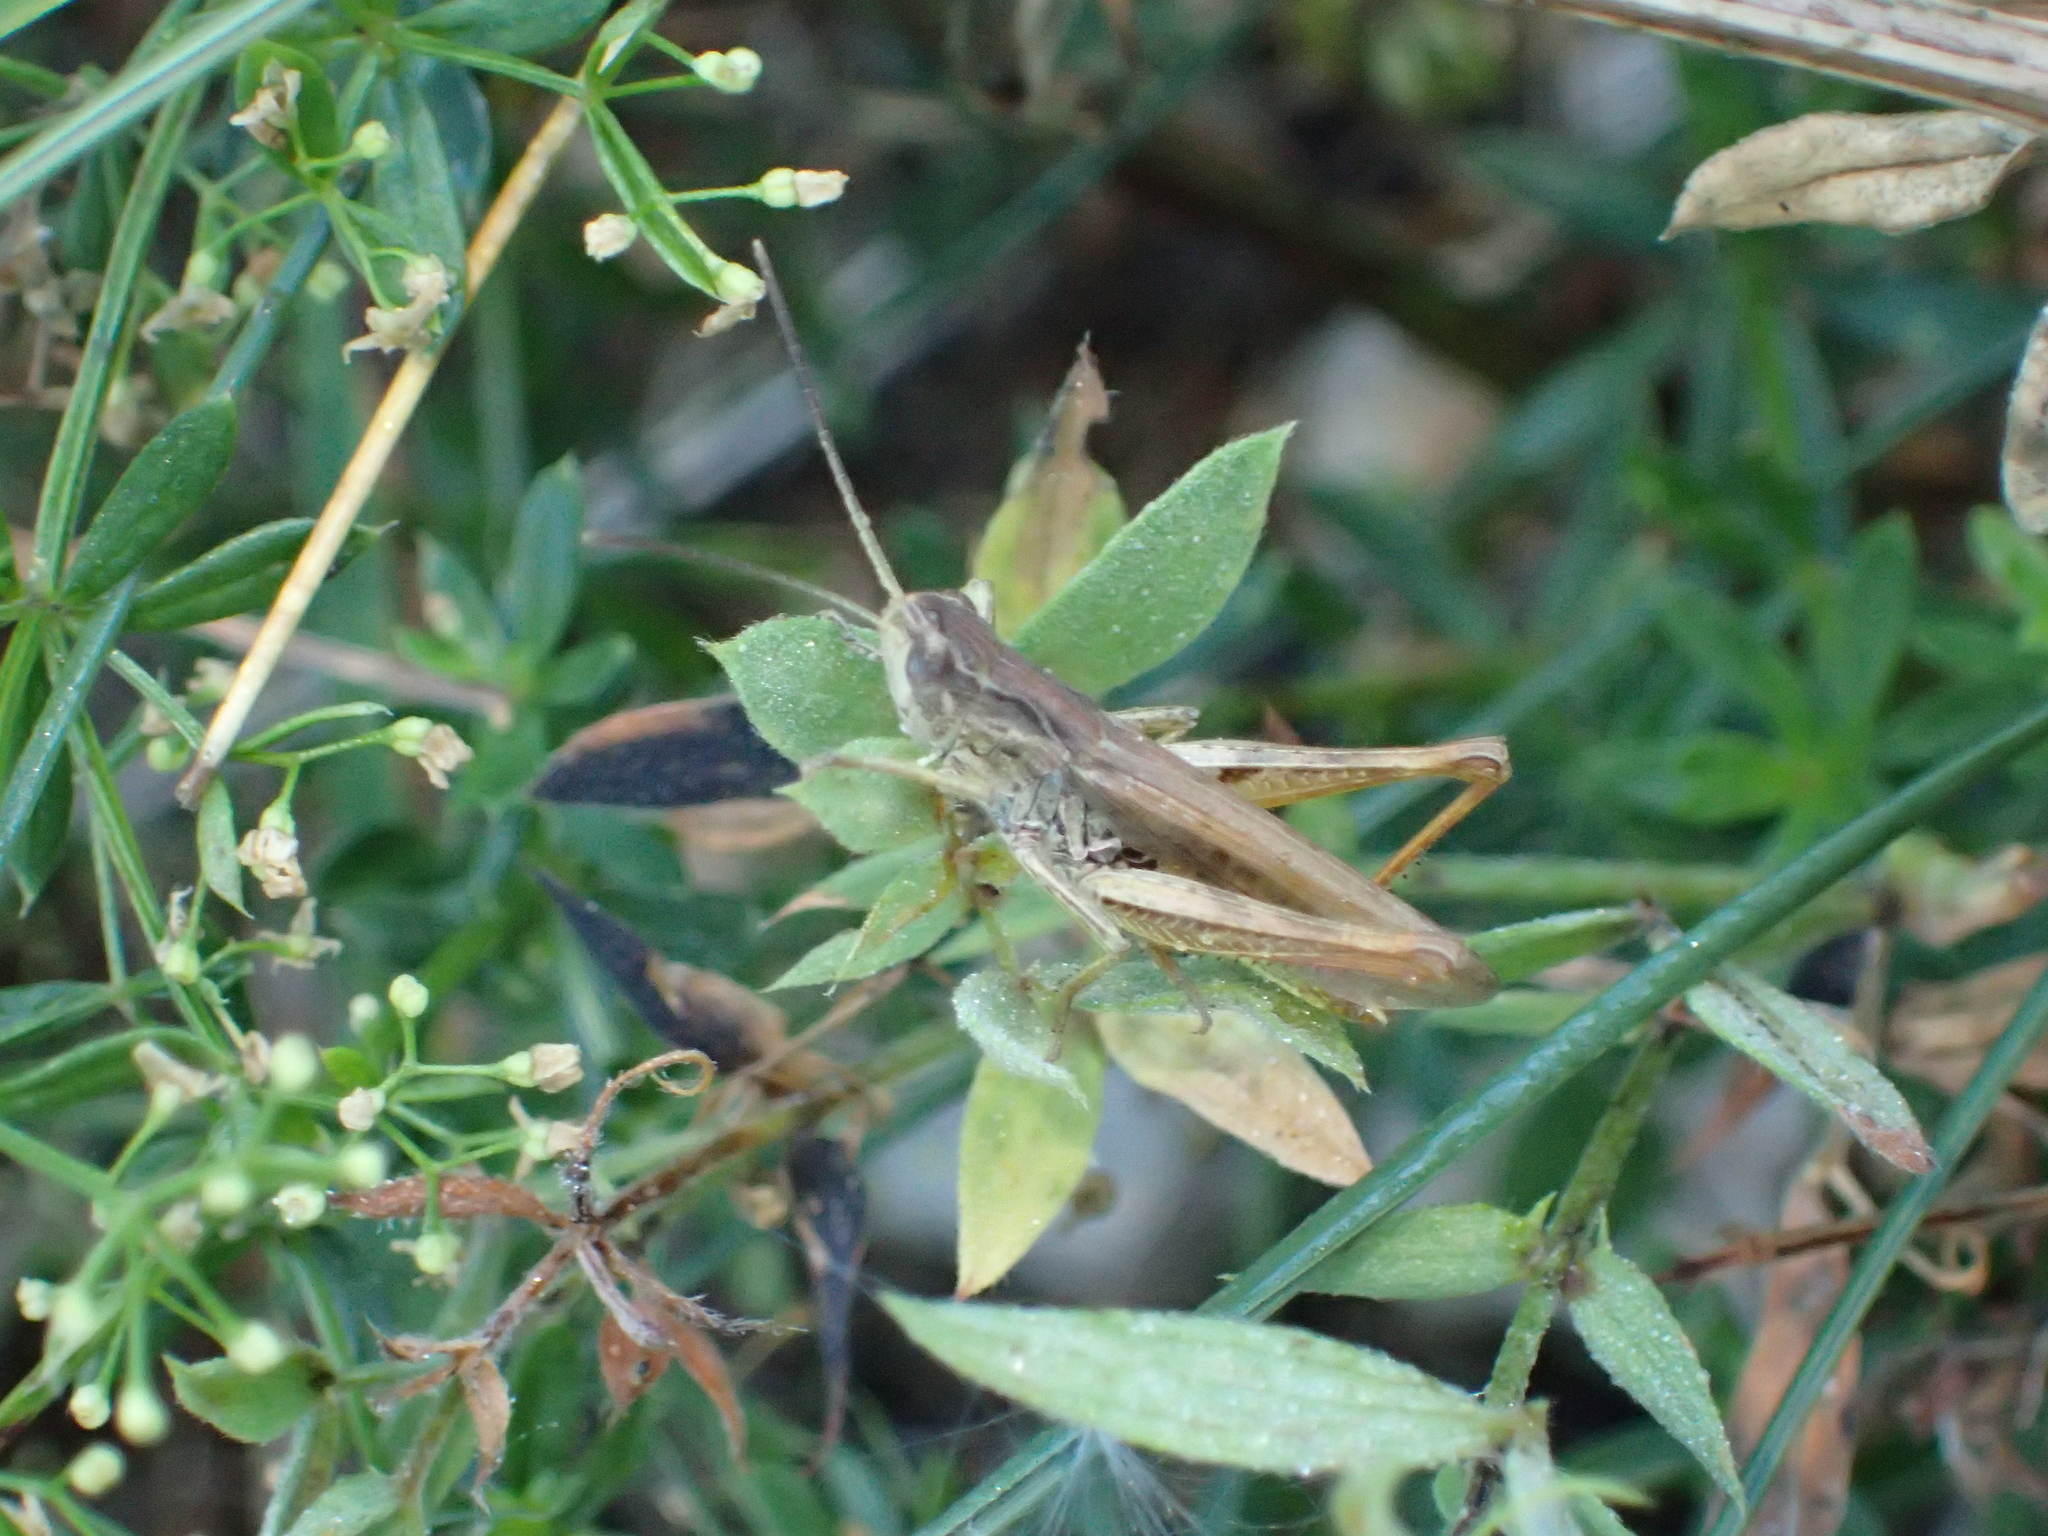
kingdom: Animalia
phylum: Arthropoda
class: Insecta
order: Orthoptera
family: Acrididae
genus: Chorthippus
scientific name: Chorthippus apricarius
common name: Upland field grasshopper
